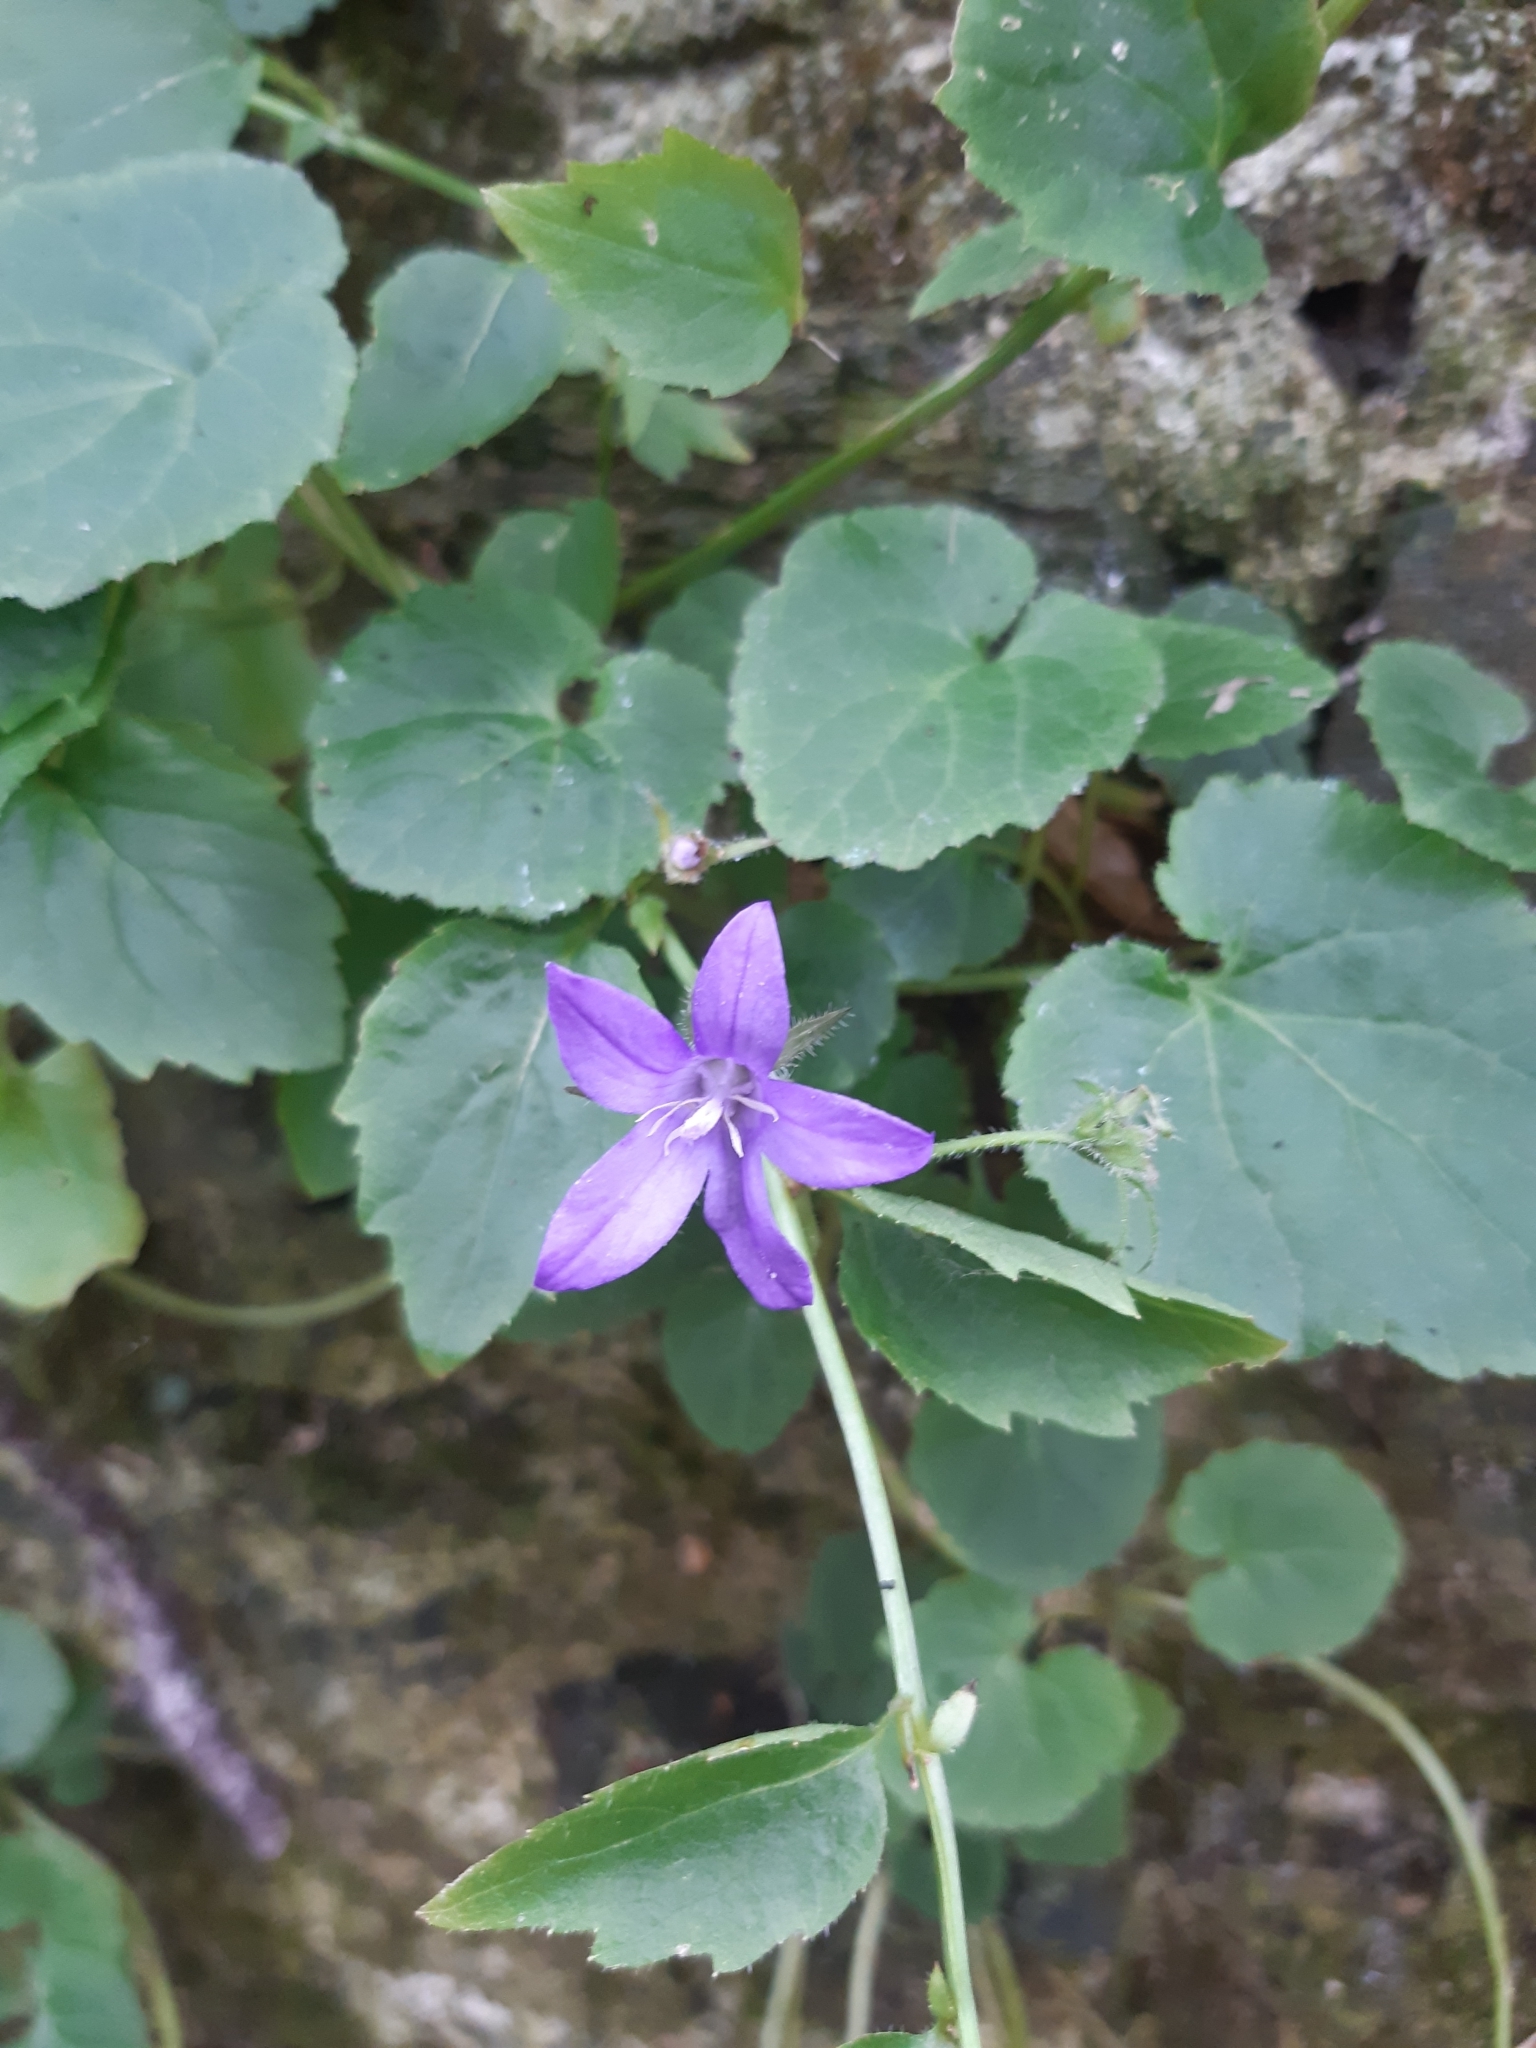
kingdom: Plantae
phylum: Tracheophyta
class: Magnoliopsida
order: Asterales
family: Campanulaceae
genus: Campanula
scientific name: Campanula poscharskyana
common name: Trailing bellflower
